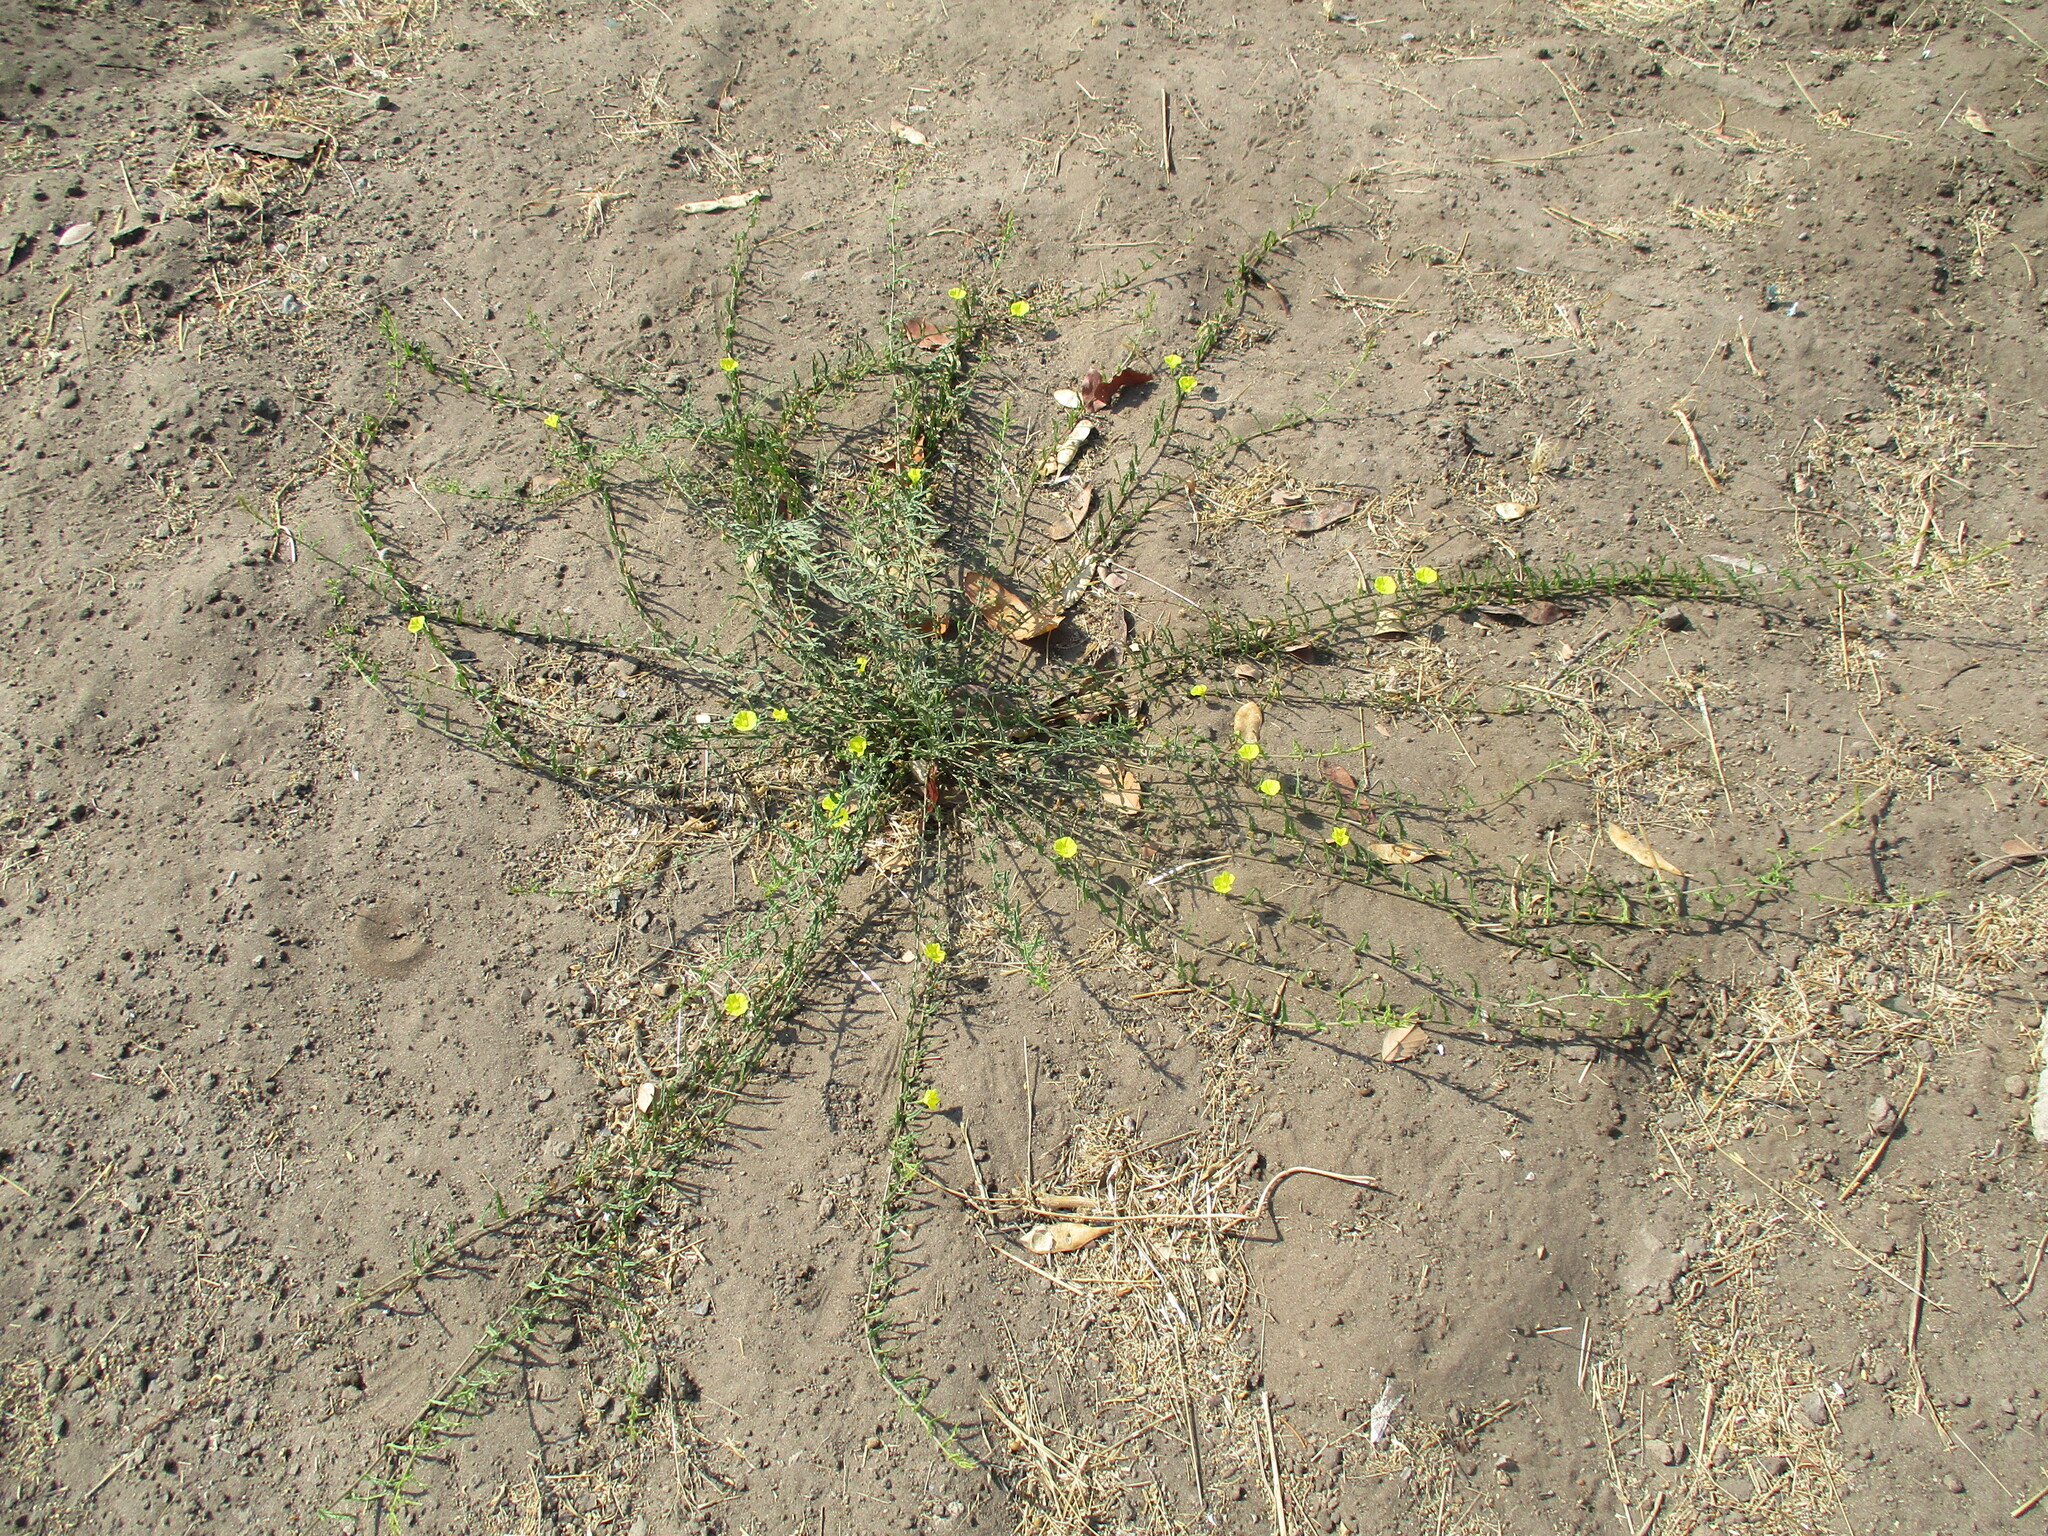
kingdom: Plantae
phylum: Tracheophyta
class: Magnoliopsida
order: Solanales
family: Convolvulaceae
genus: Xenostegia
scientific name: Xenostegia tridentata
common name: African morningvine
